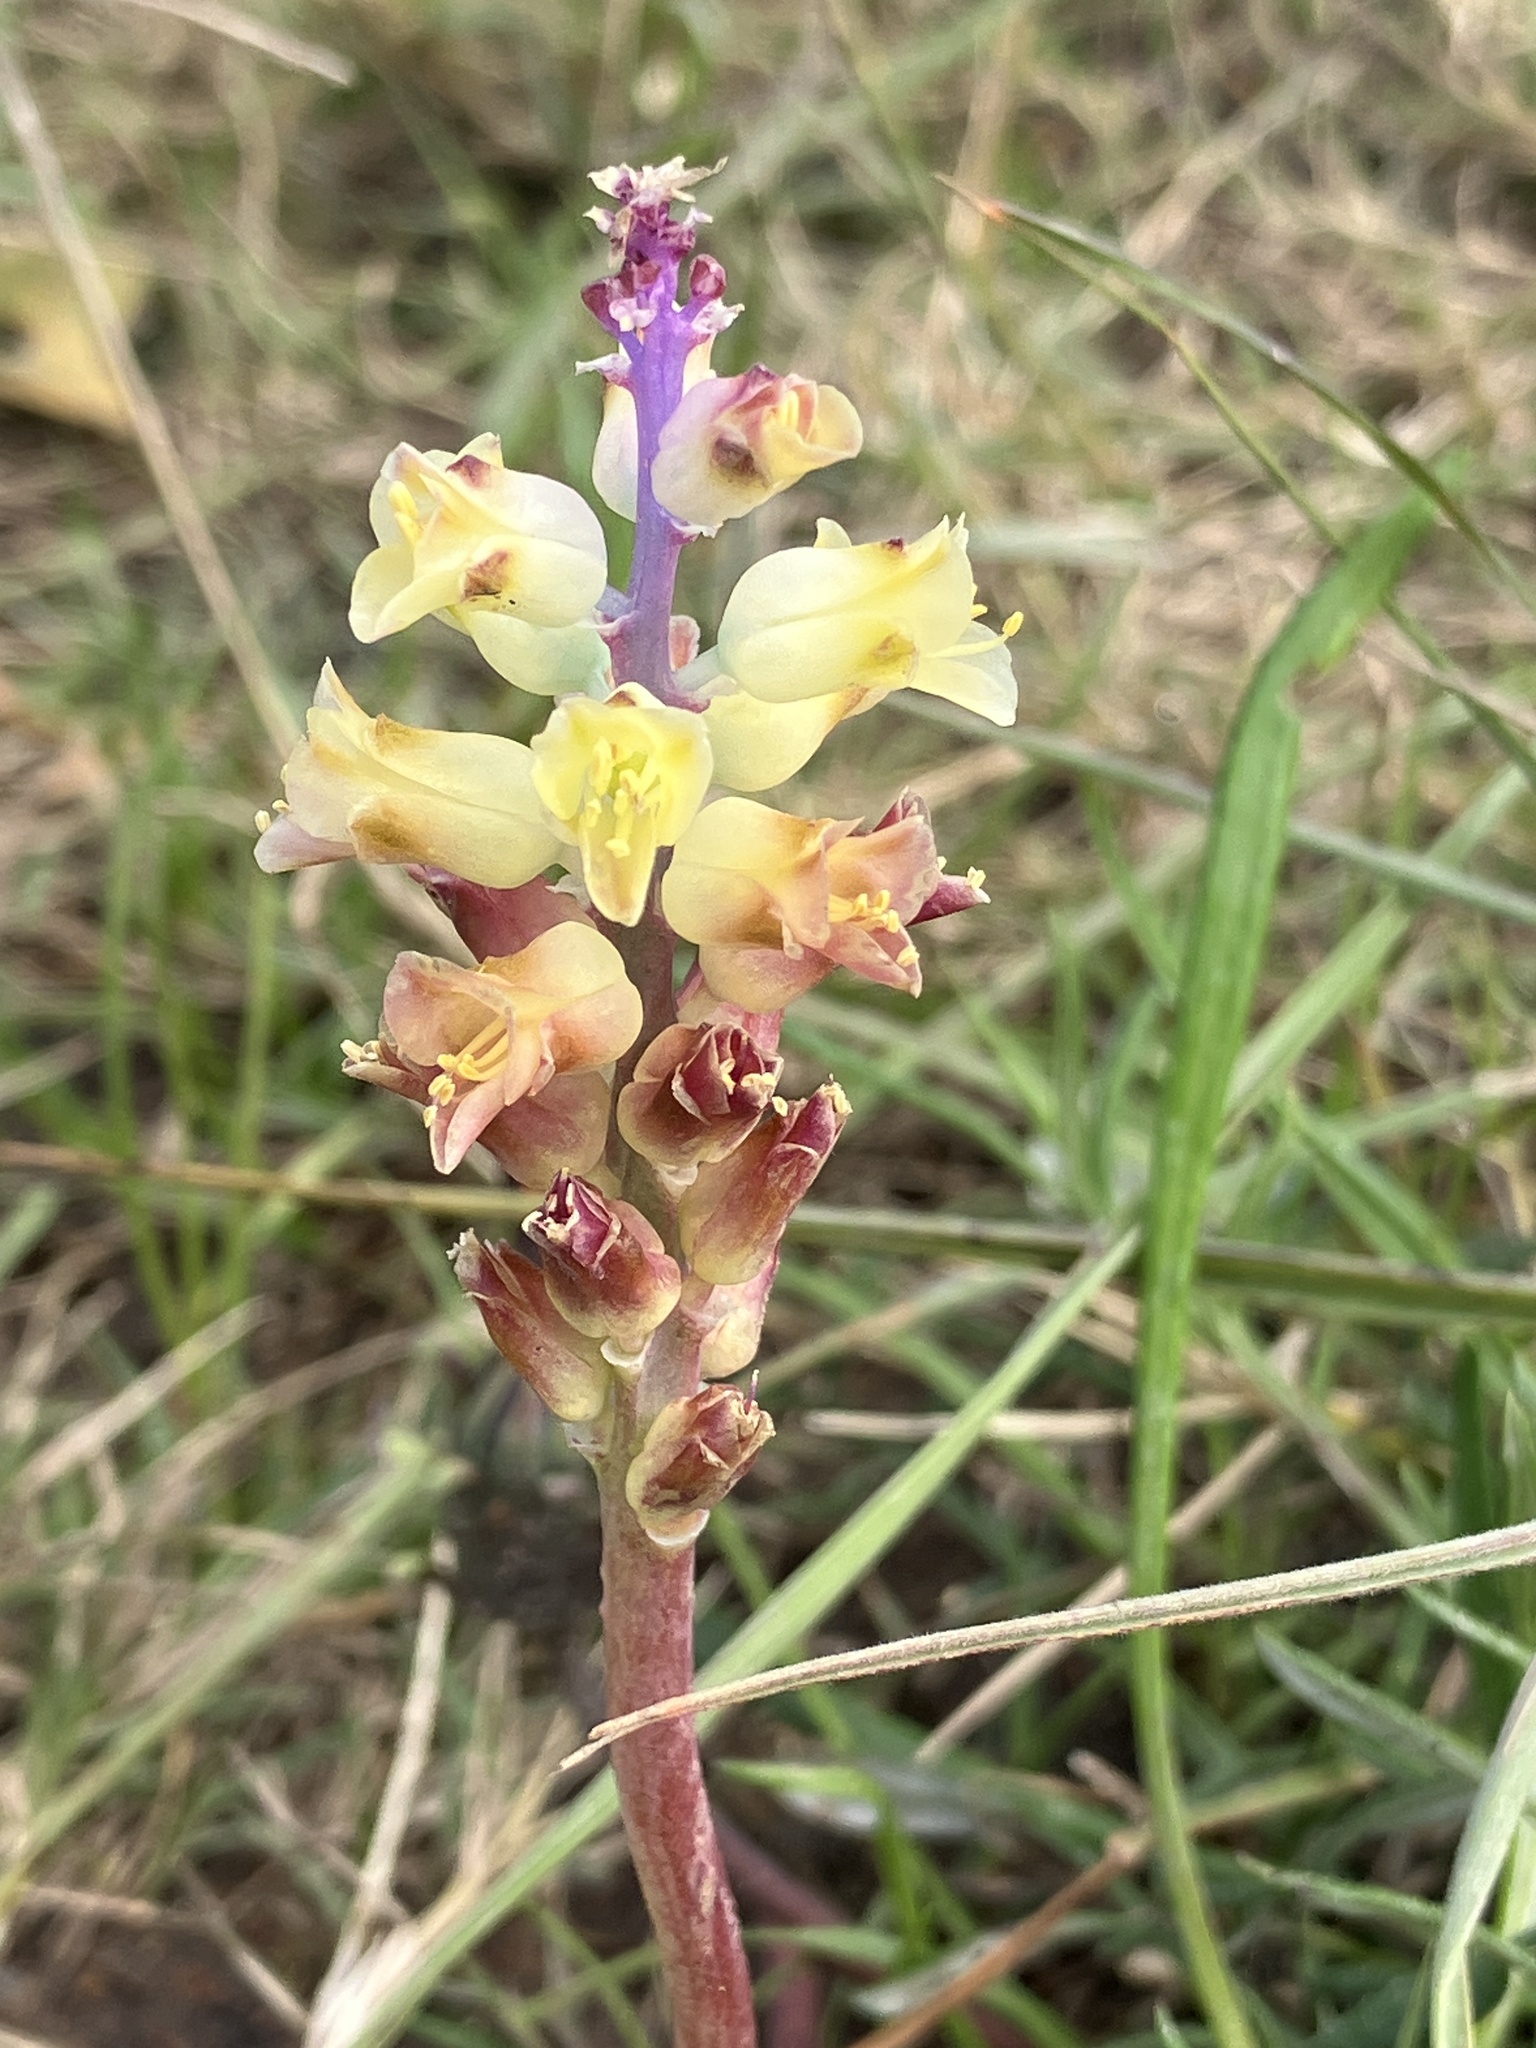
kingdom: Plantae
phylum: Tracheophyta
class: Liliopsida
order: Asparagales
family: Asparagaceae
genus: Lachenalia
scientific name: Lachenalia pallida
